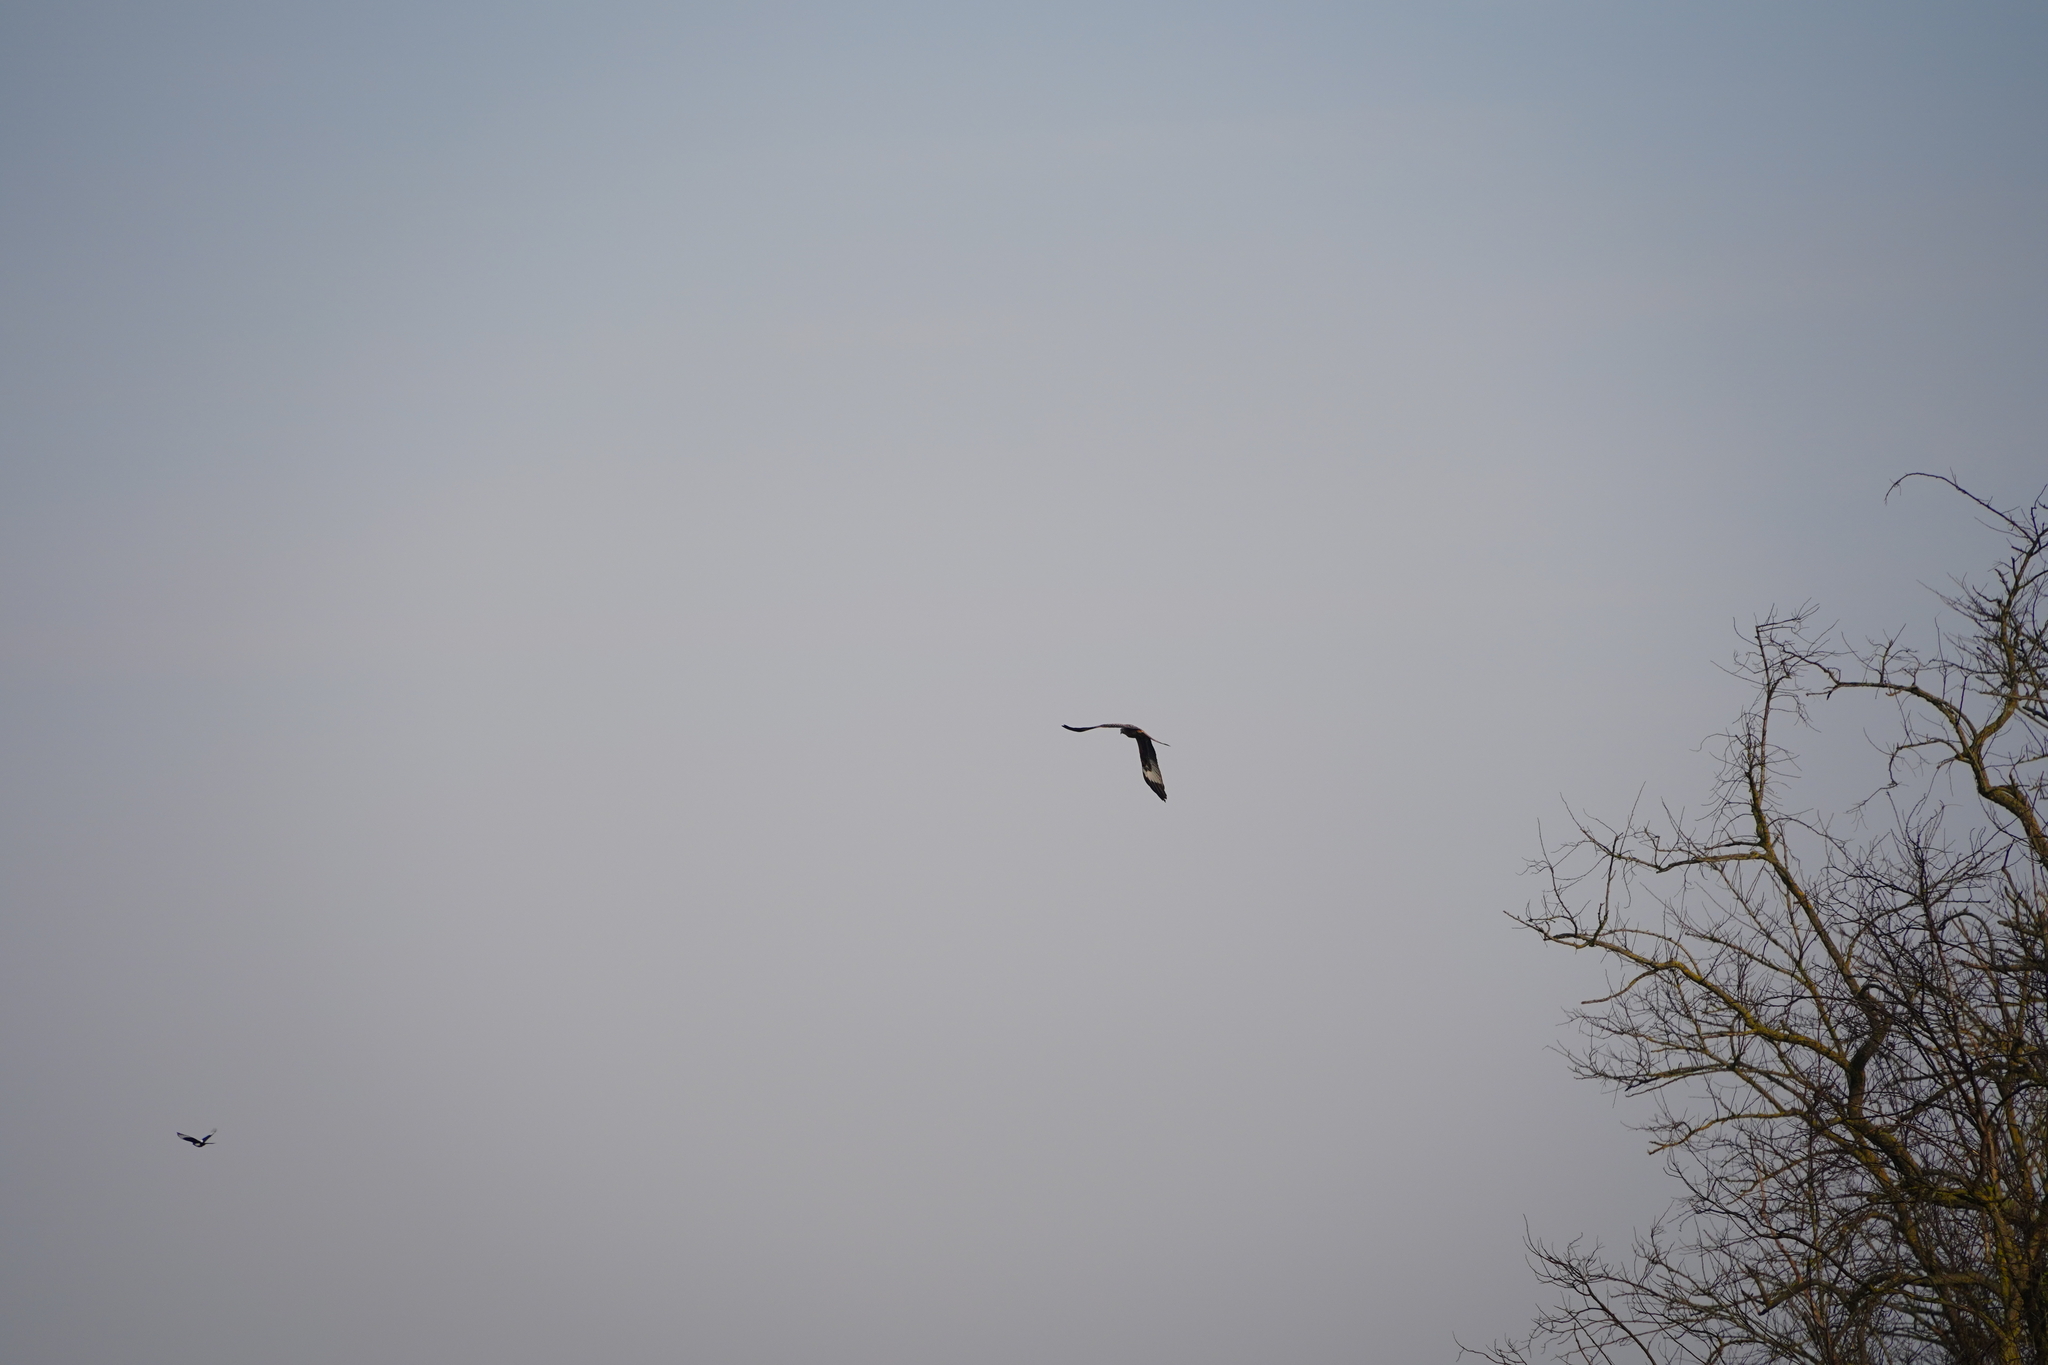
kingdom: Animalia
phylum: Chordata
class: Aves
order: Accipitriformes
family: Accipitridae
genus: Milvus
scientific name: Milvus milvus
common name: Red kite
